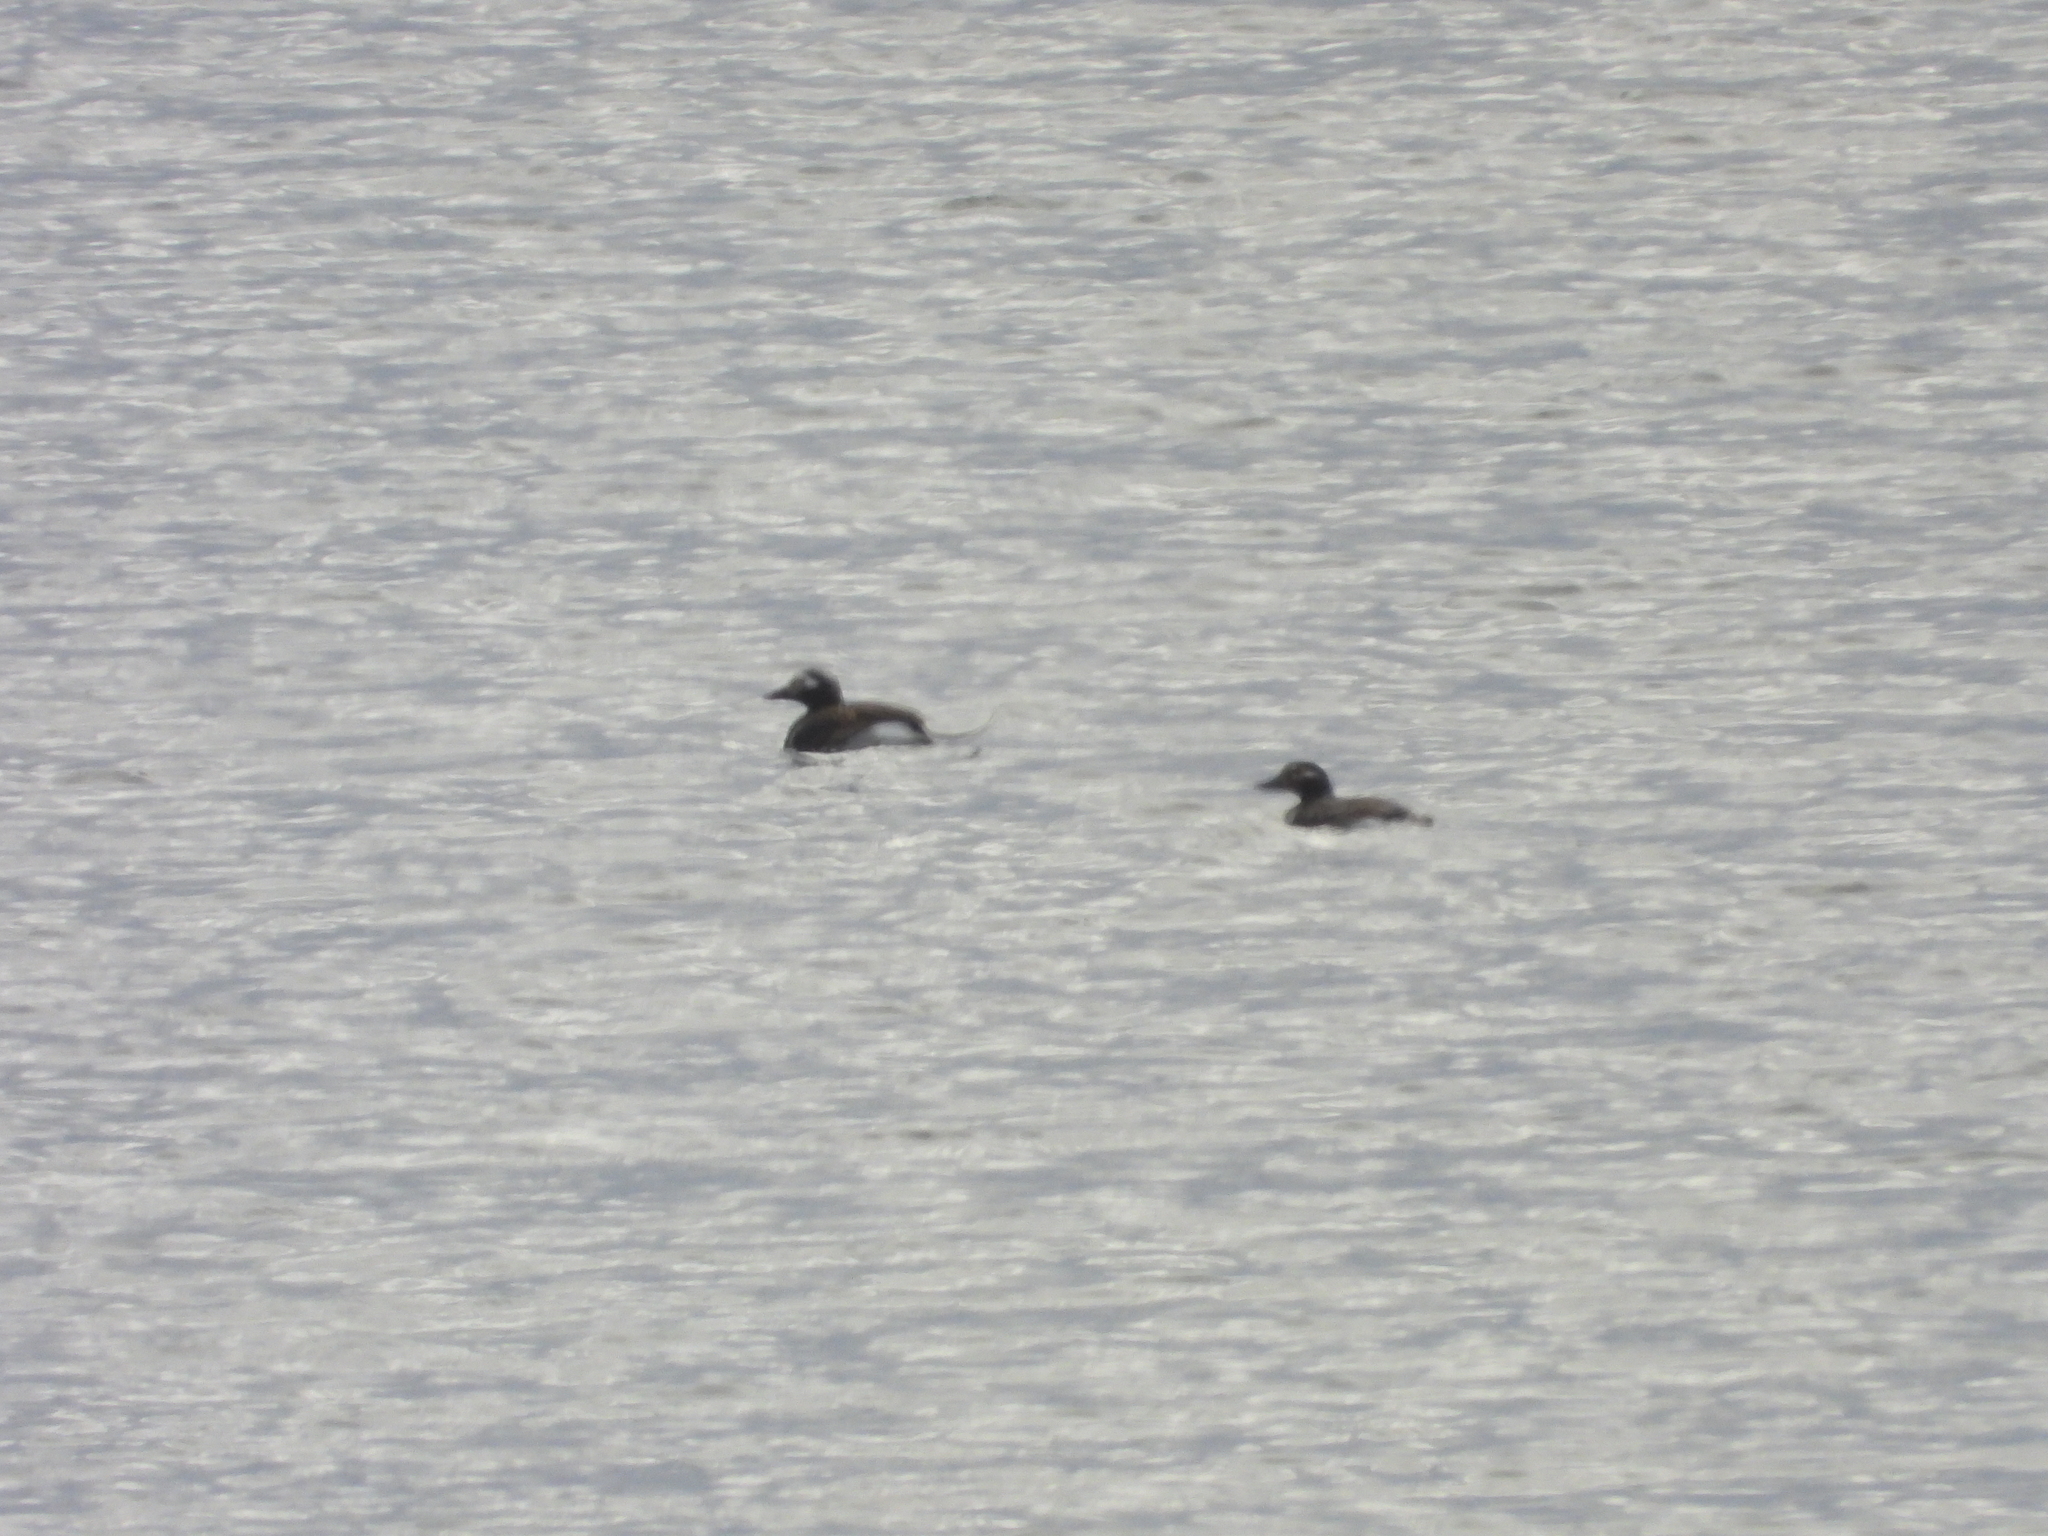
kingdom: Animalia
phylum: Chordata
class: Aves
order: Anseriformes
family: Anatidae
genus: Clangula
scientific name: Clangula hyemalis
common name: Long-tailed duck
